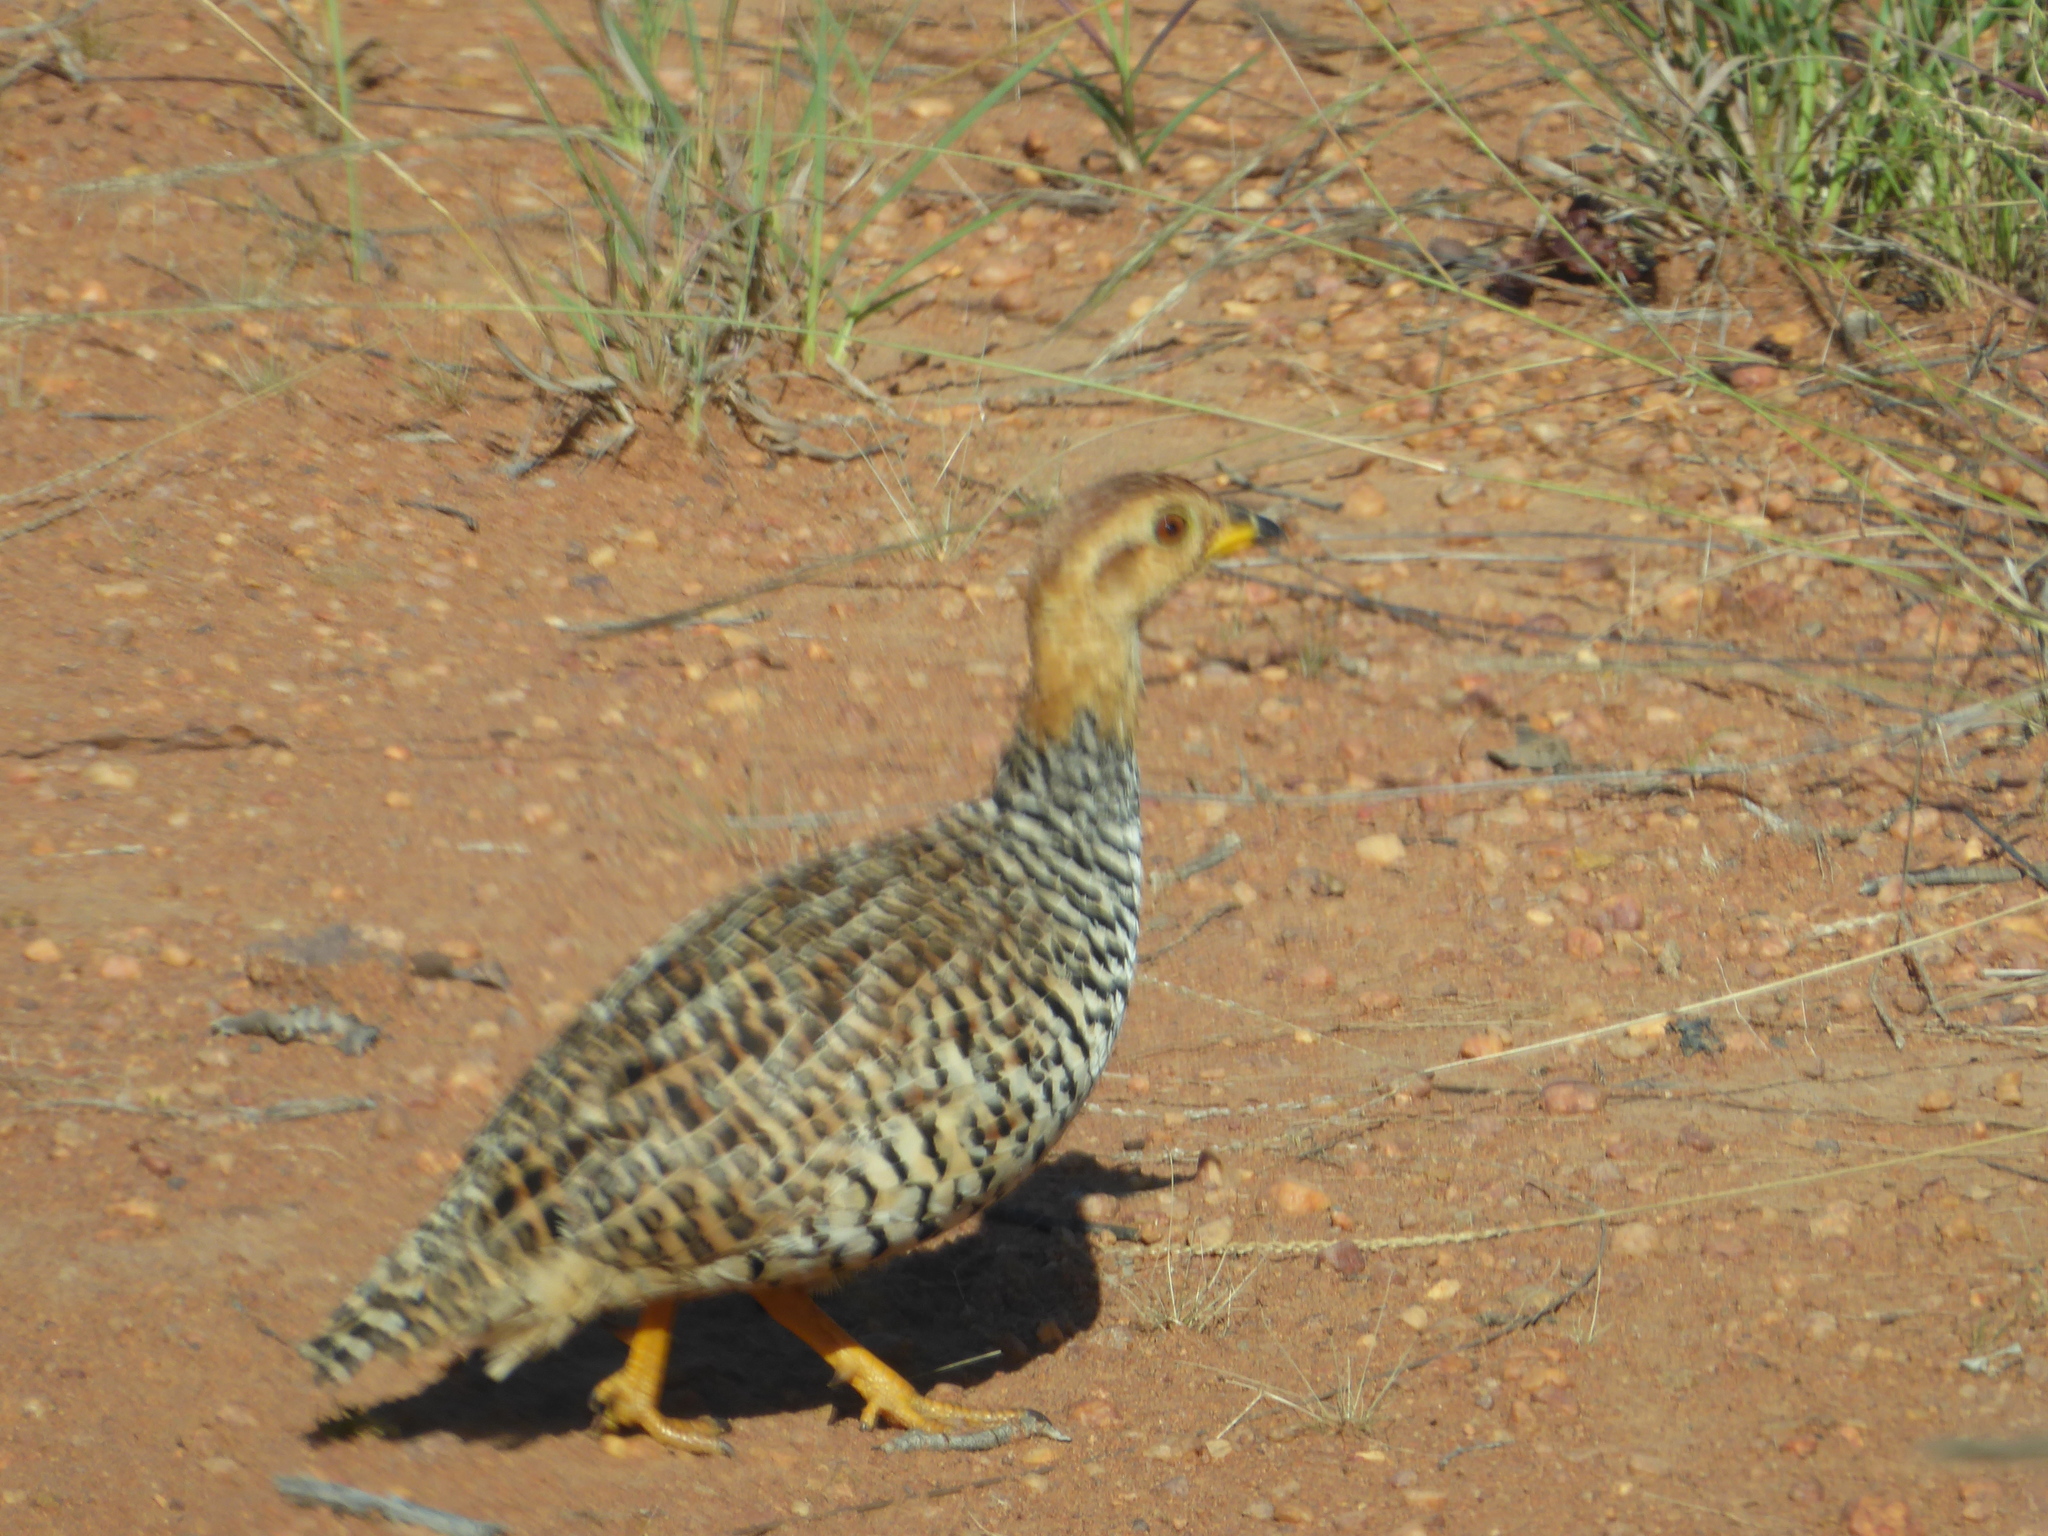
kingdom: Animalia
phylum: Chordata
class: Aves
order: Galliformes
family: Phasianidae
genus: Campocolinus
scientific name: Campocolinus coqui
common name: Coqui francolin
